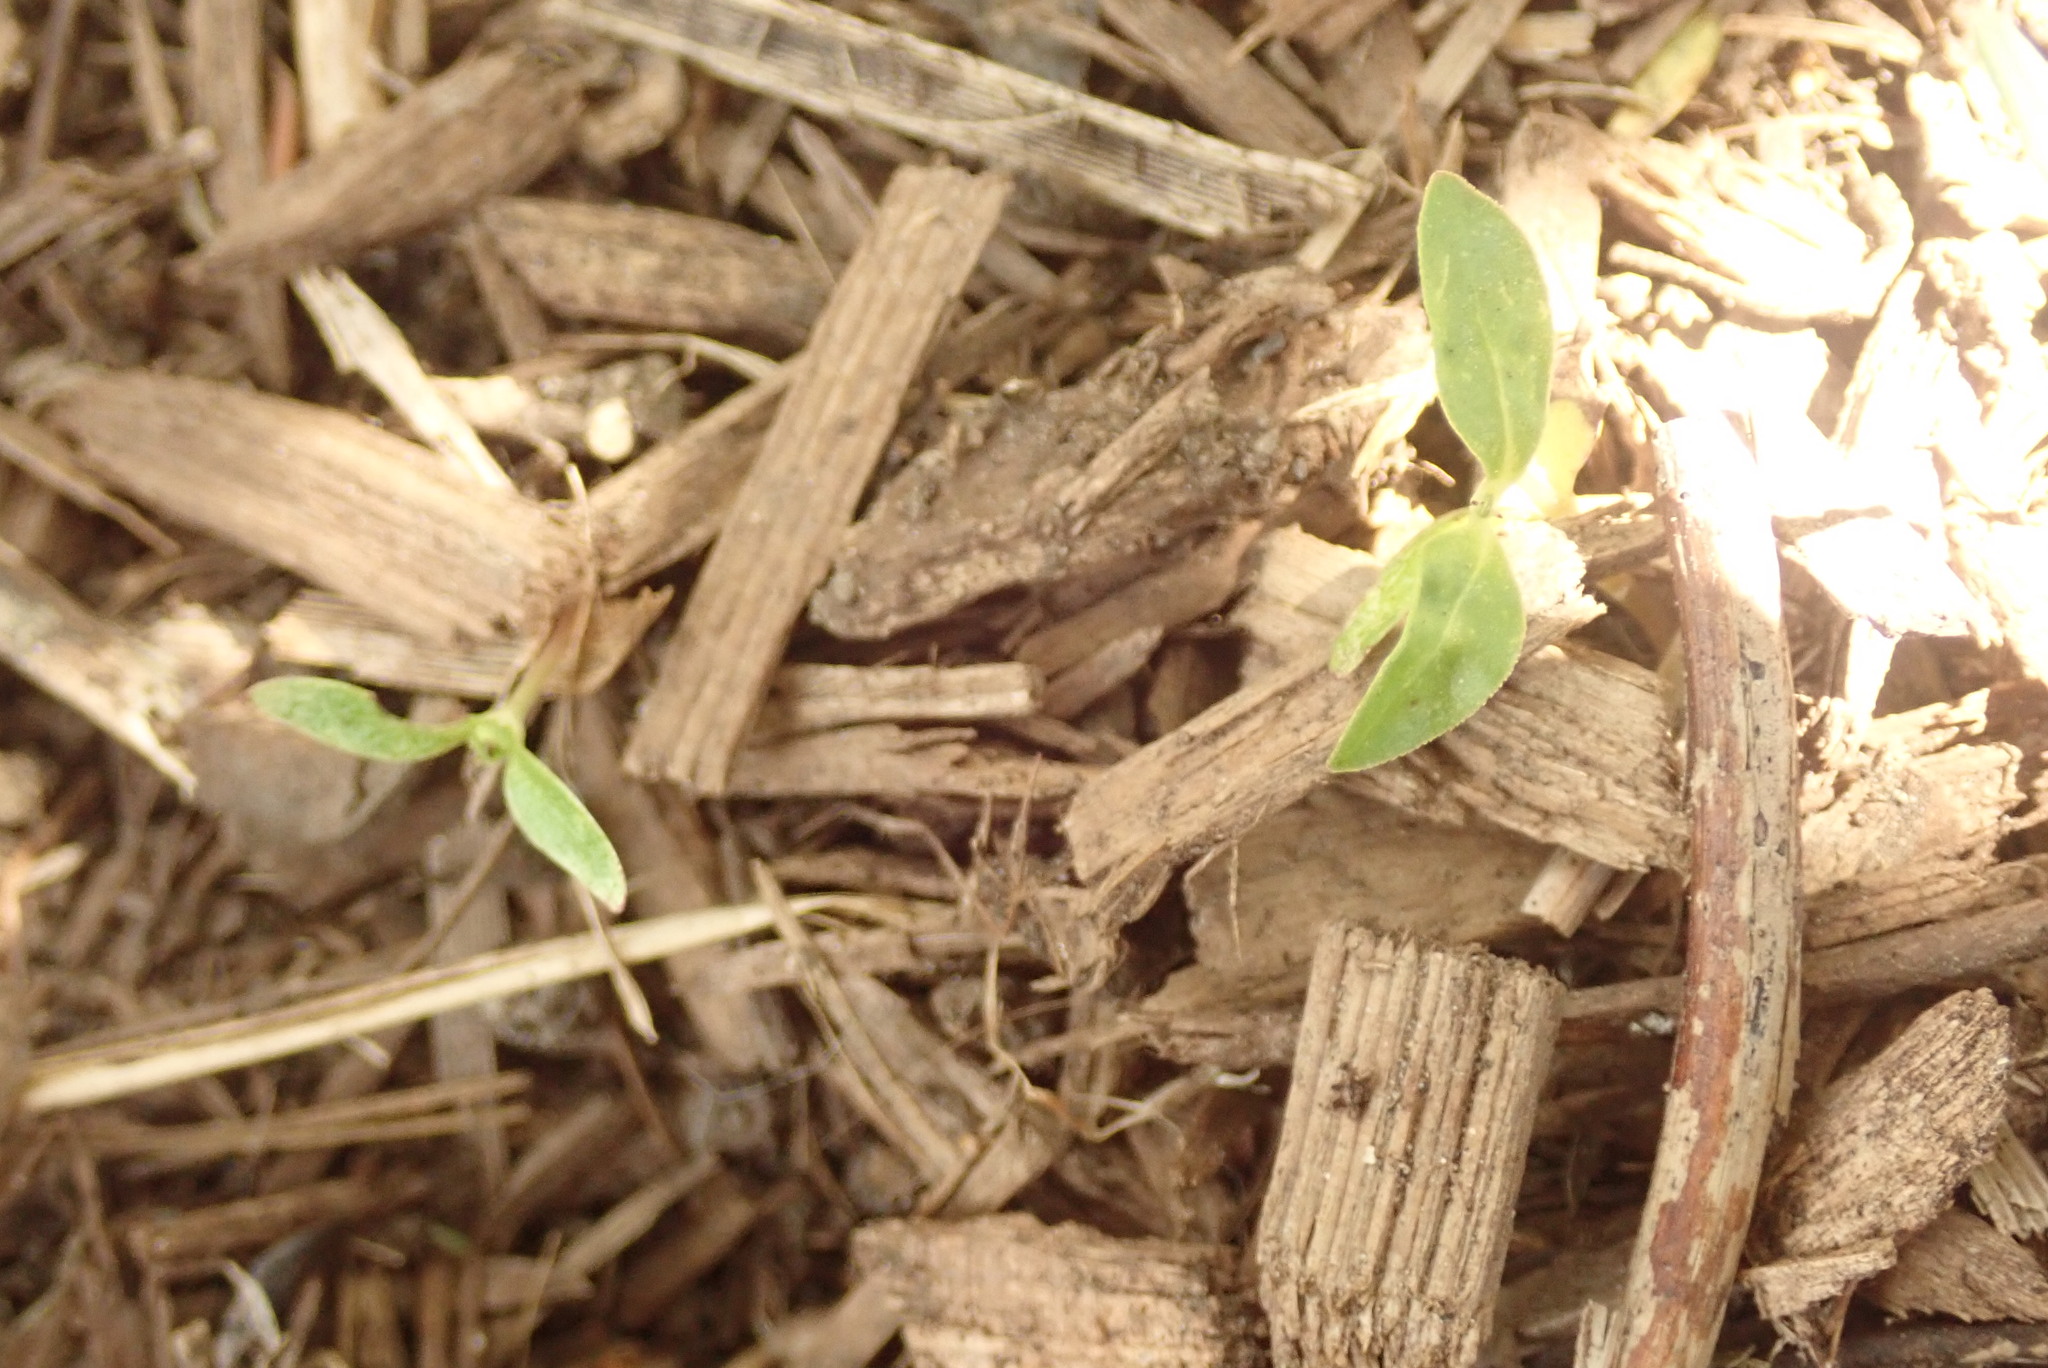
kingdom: Plantae
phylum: Tracheophyta
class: Magnoliopsida
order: Gentianales
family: Rubiaceae
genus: Coprosma
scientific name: Coprosma robusta
